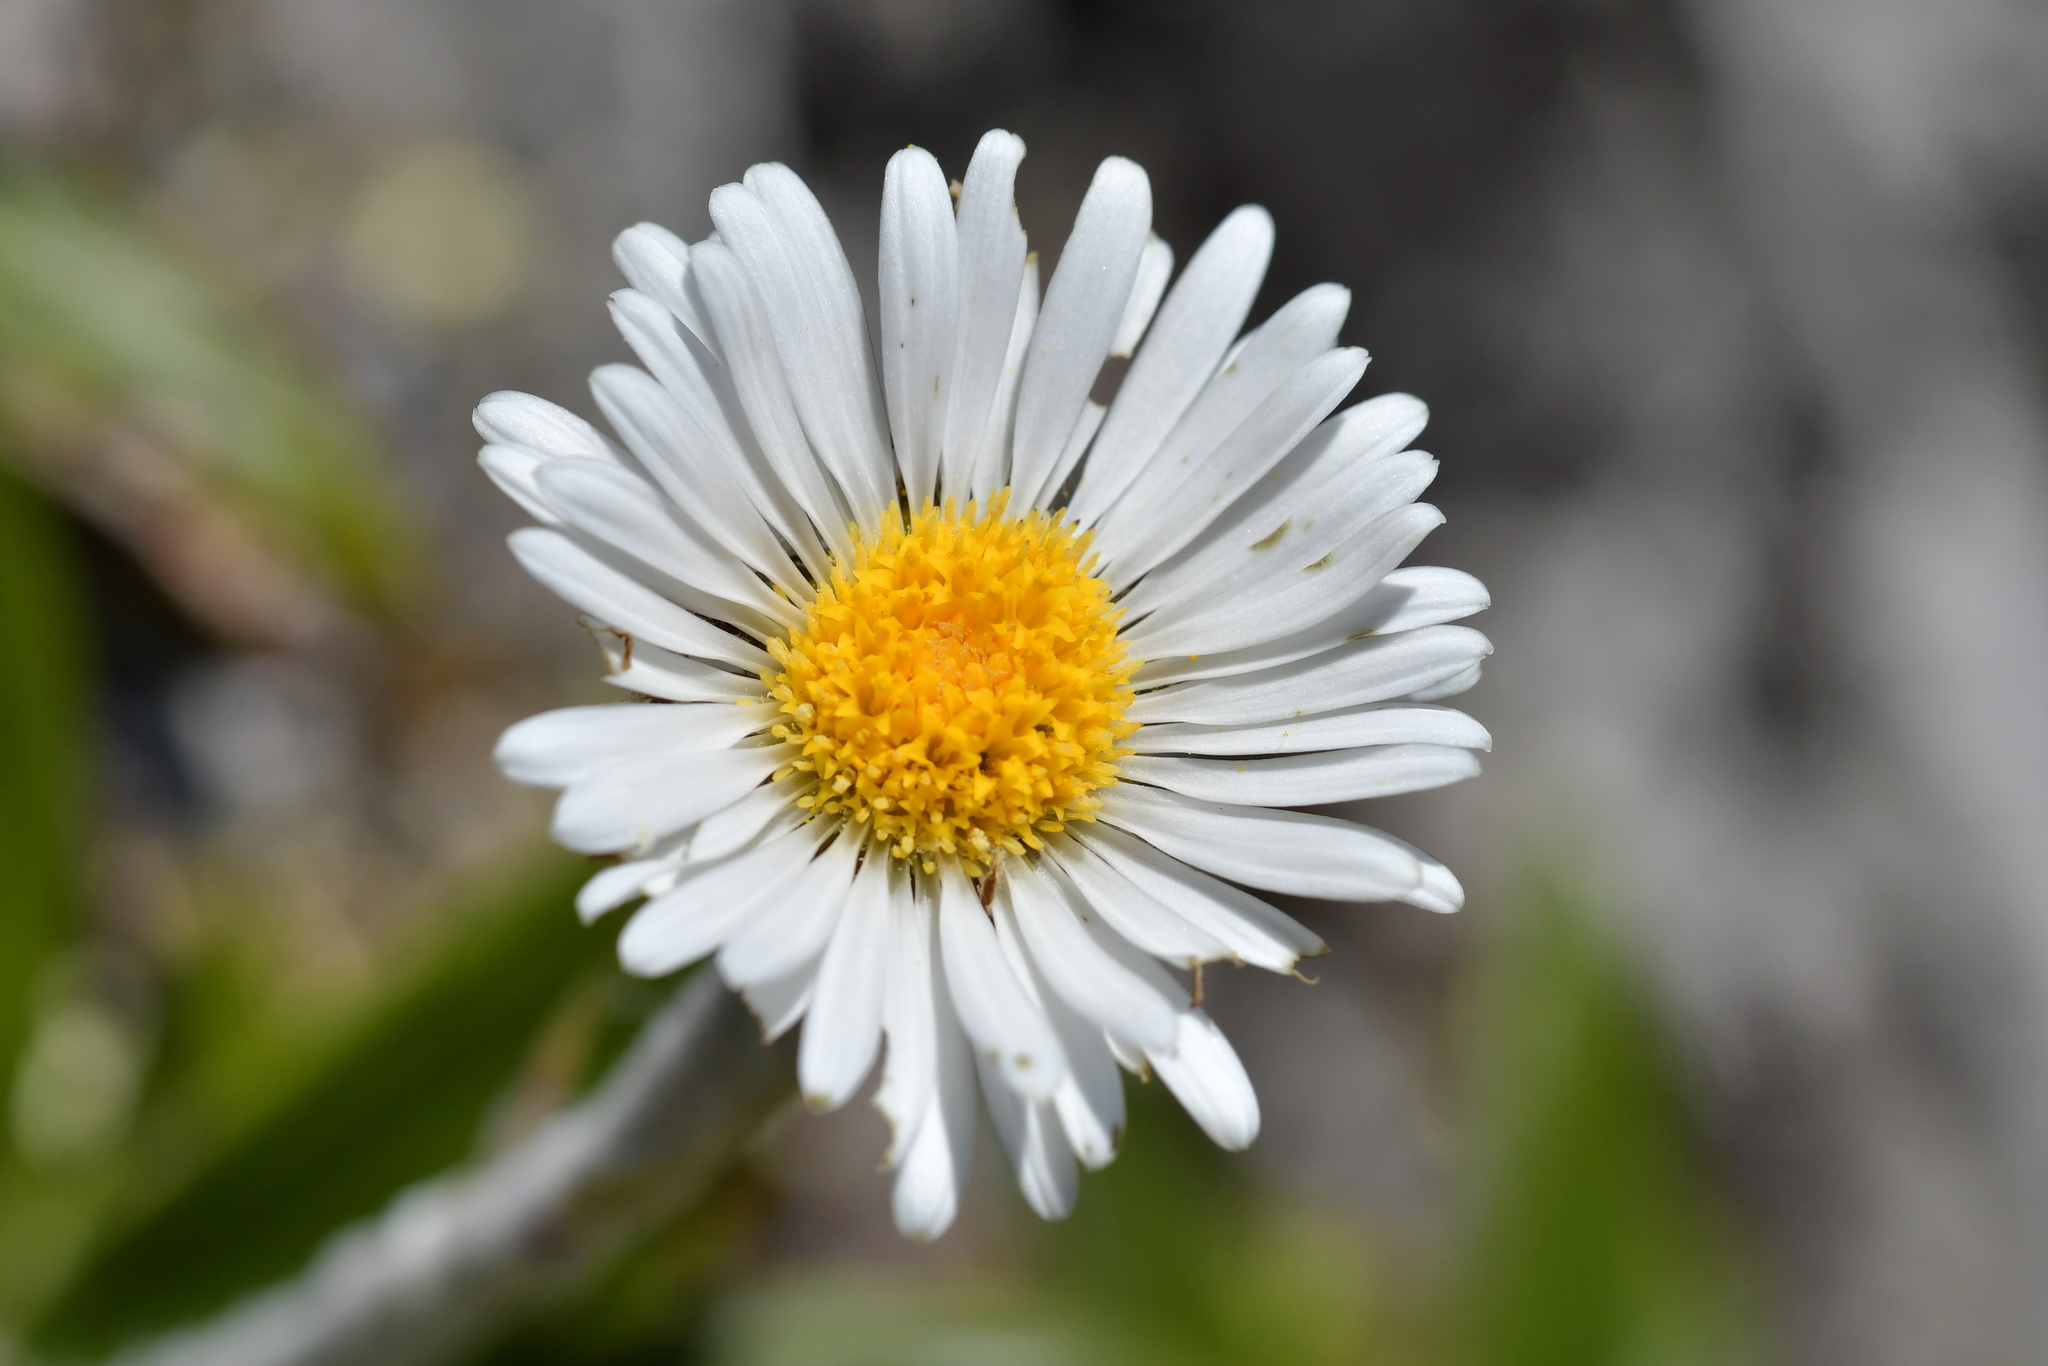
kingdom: Plantae
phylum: Tracheophyta
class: Magnoliopsida
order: Asterales
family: Asteraceae
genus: Celmisia
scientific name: Celmisia spectabilis
